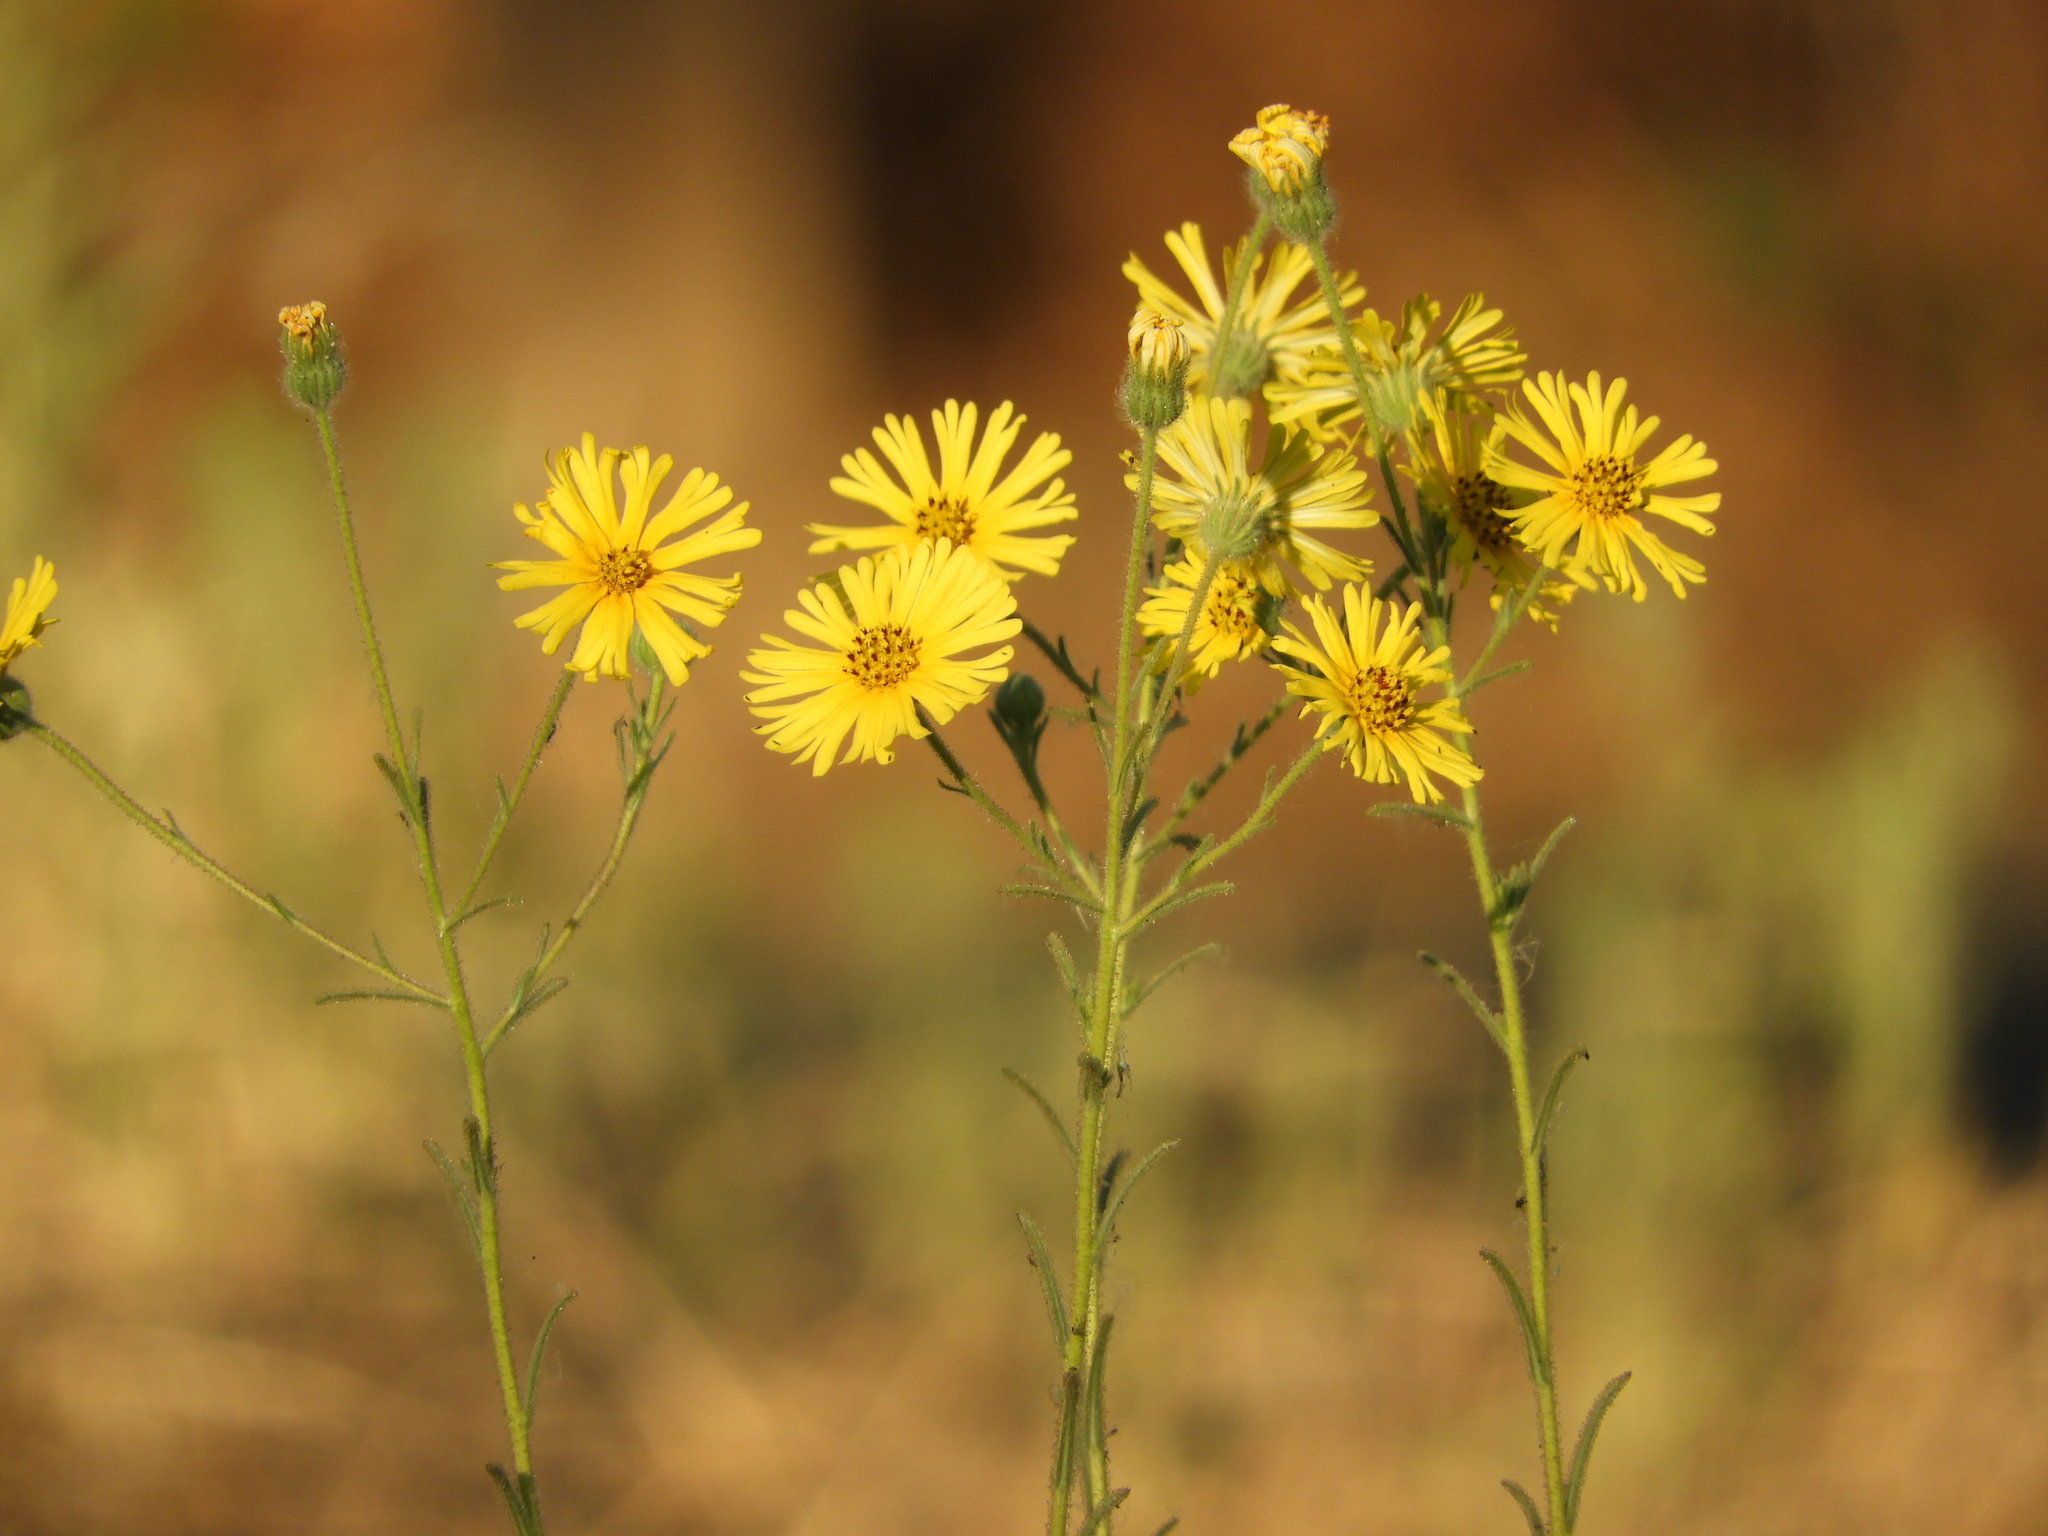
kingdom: Plantae
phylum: Tracheophyta
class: Magnoliopsida
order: Asterales
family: Asteraceae
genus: Madia
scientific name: Madia elegans
